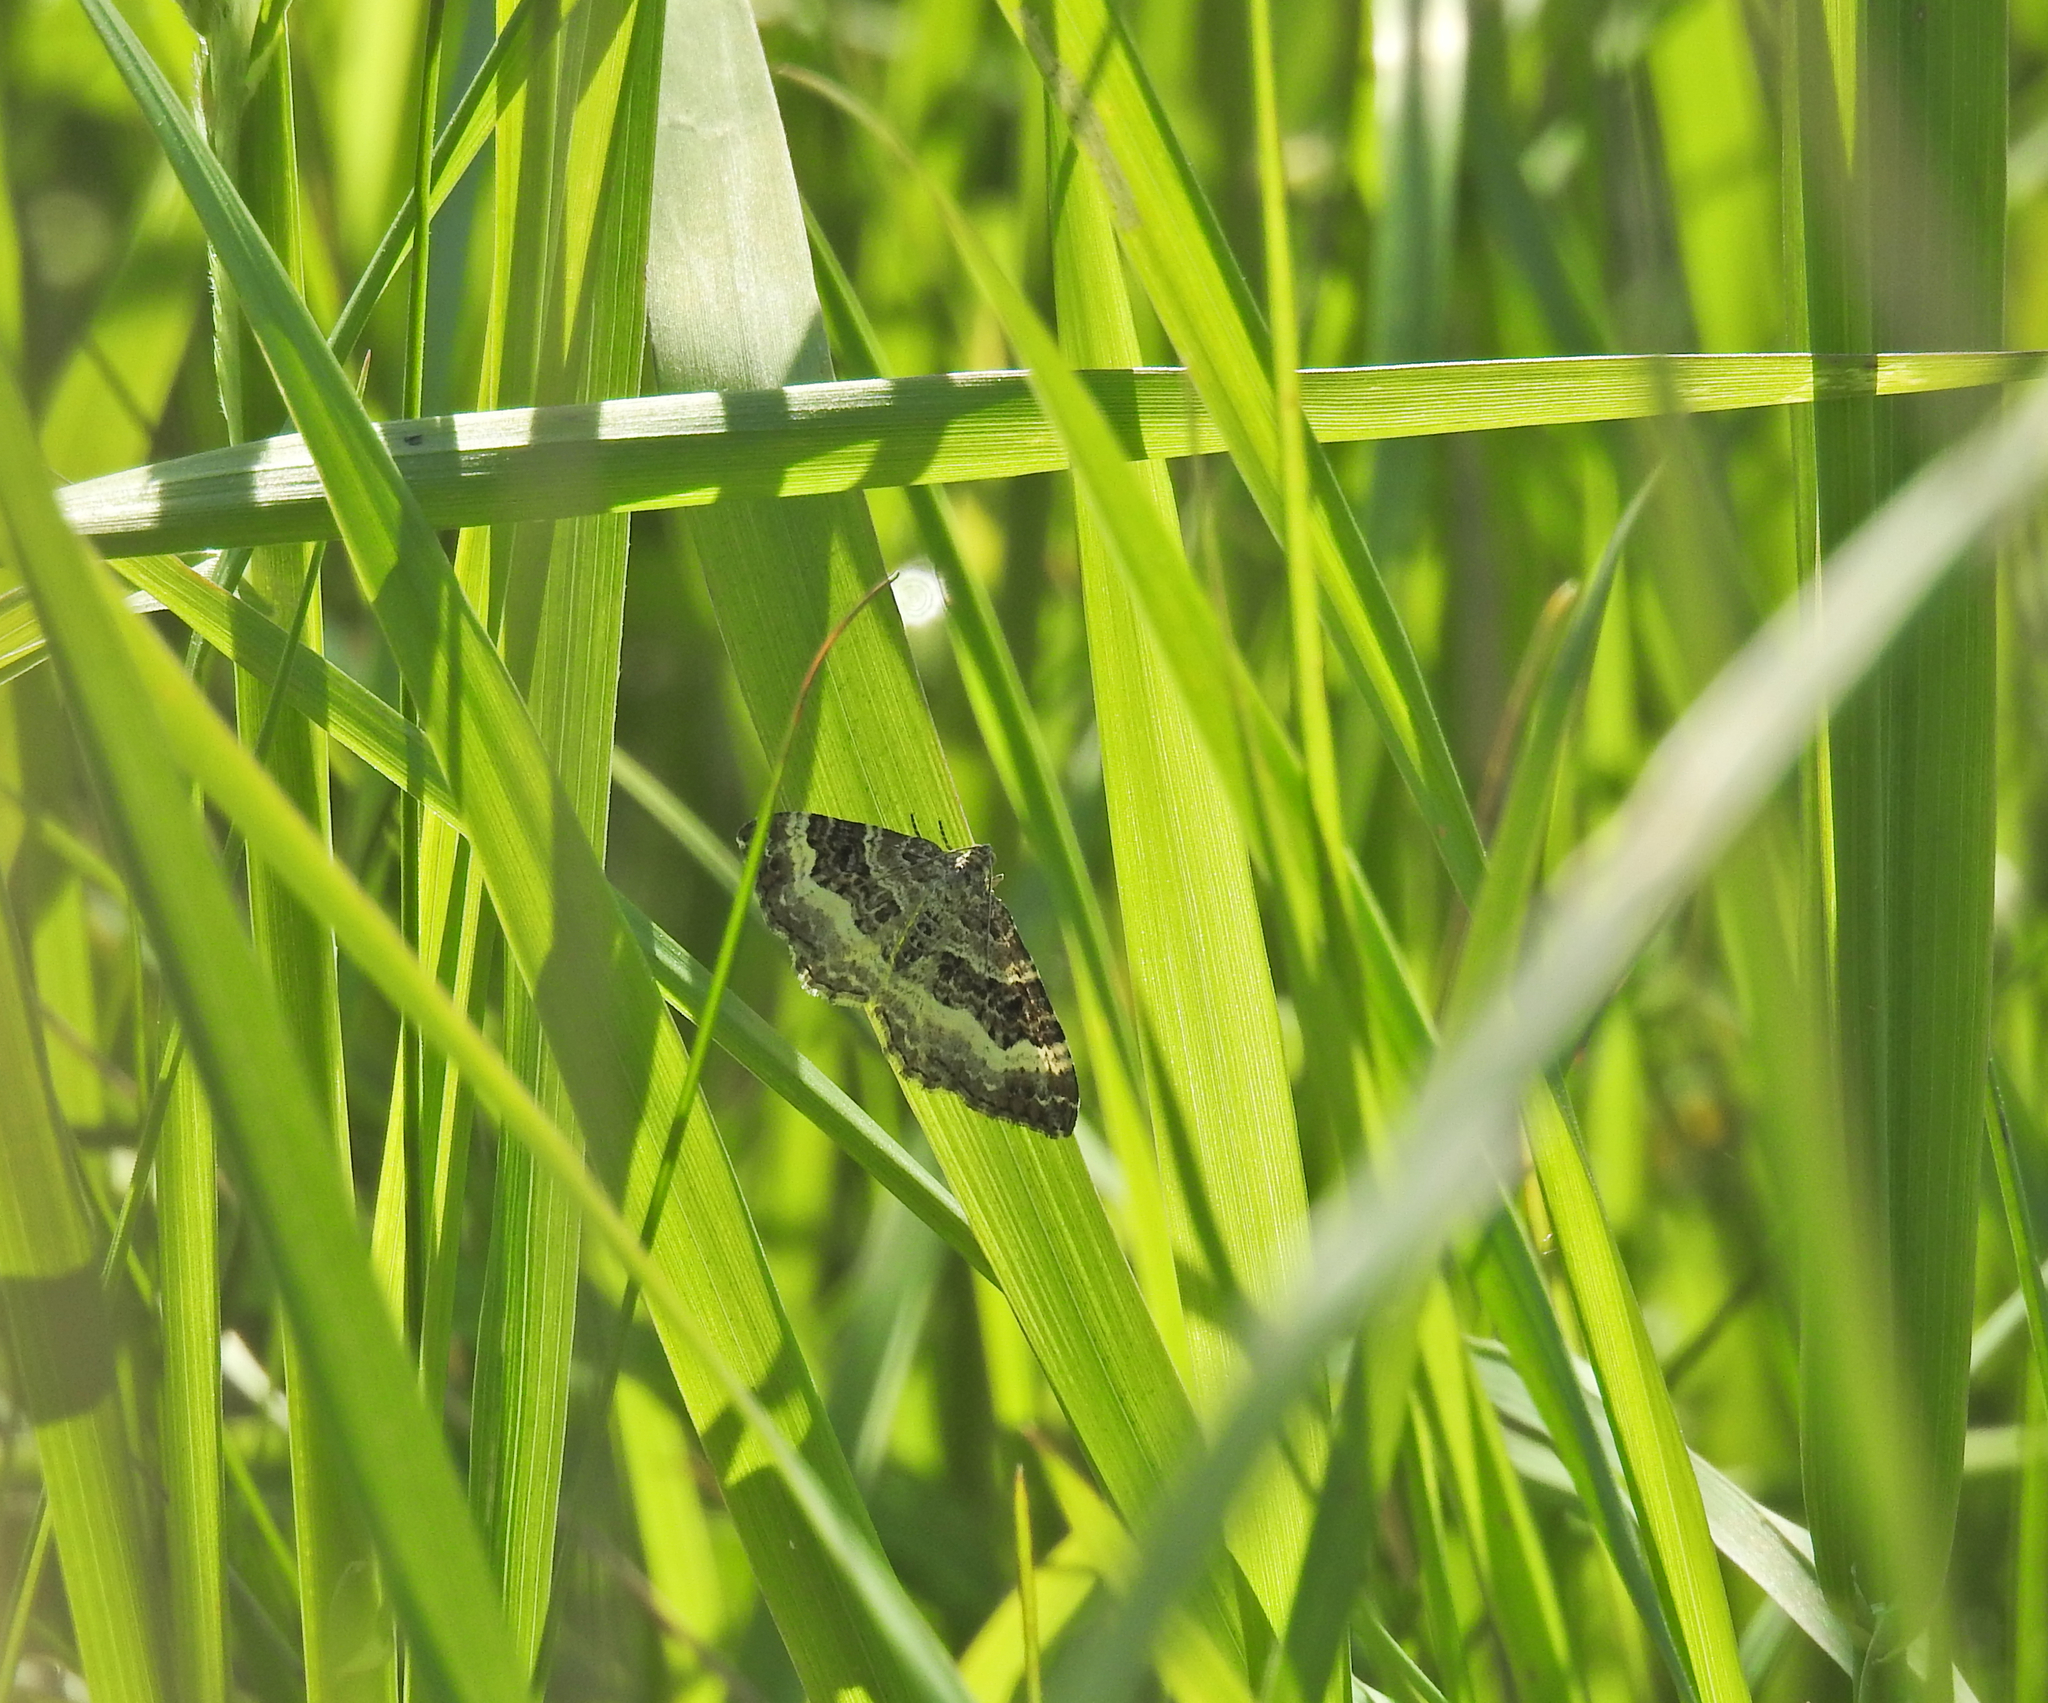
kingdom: Animalia
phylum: Arthropoda
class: Insecta
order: Lepidoptera
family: Geometridae
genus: Epirrhoe
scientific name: Epirrhoe alternata
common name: Common carpet
